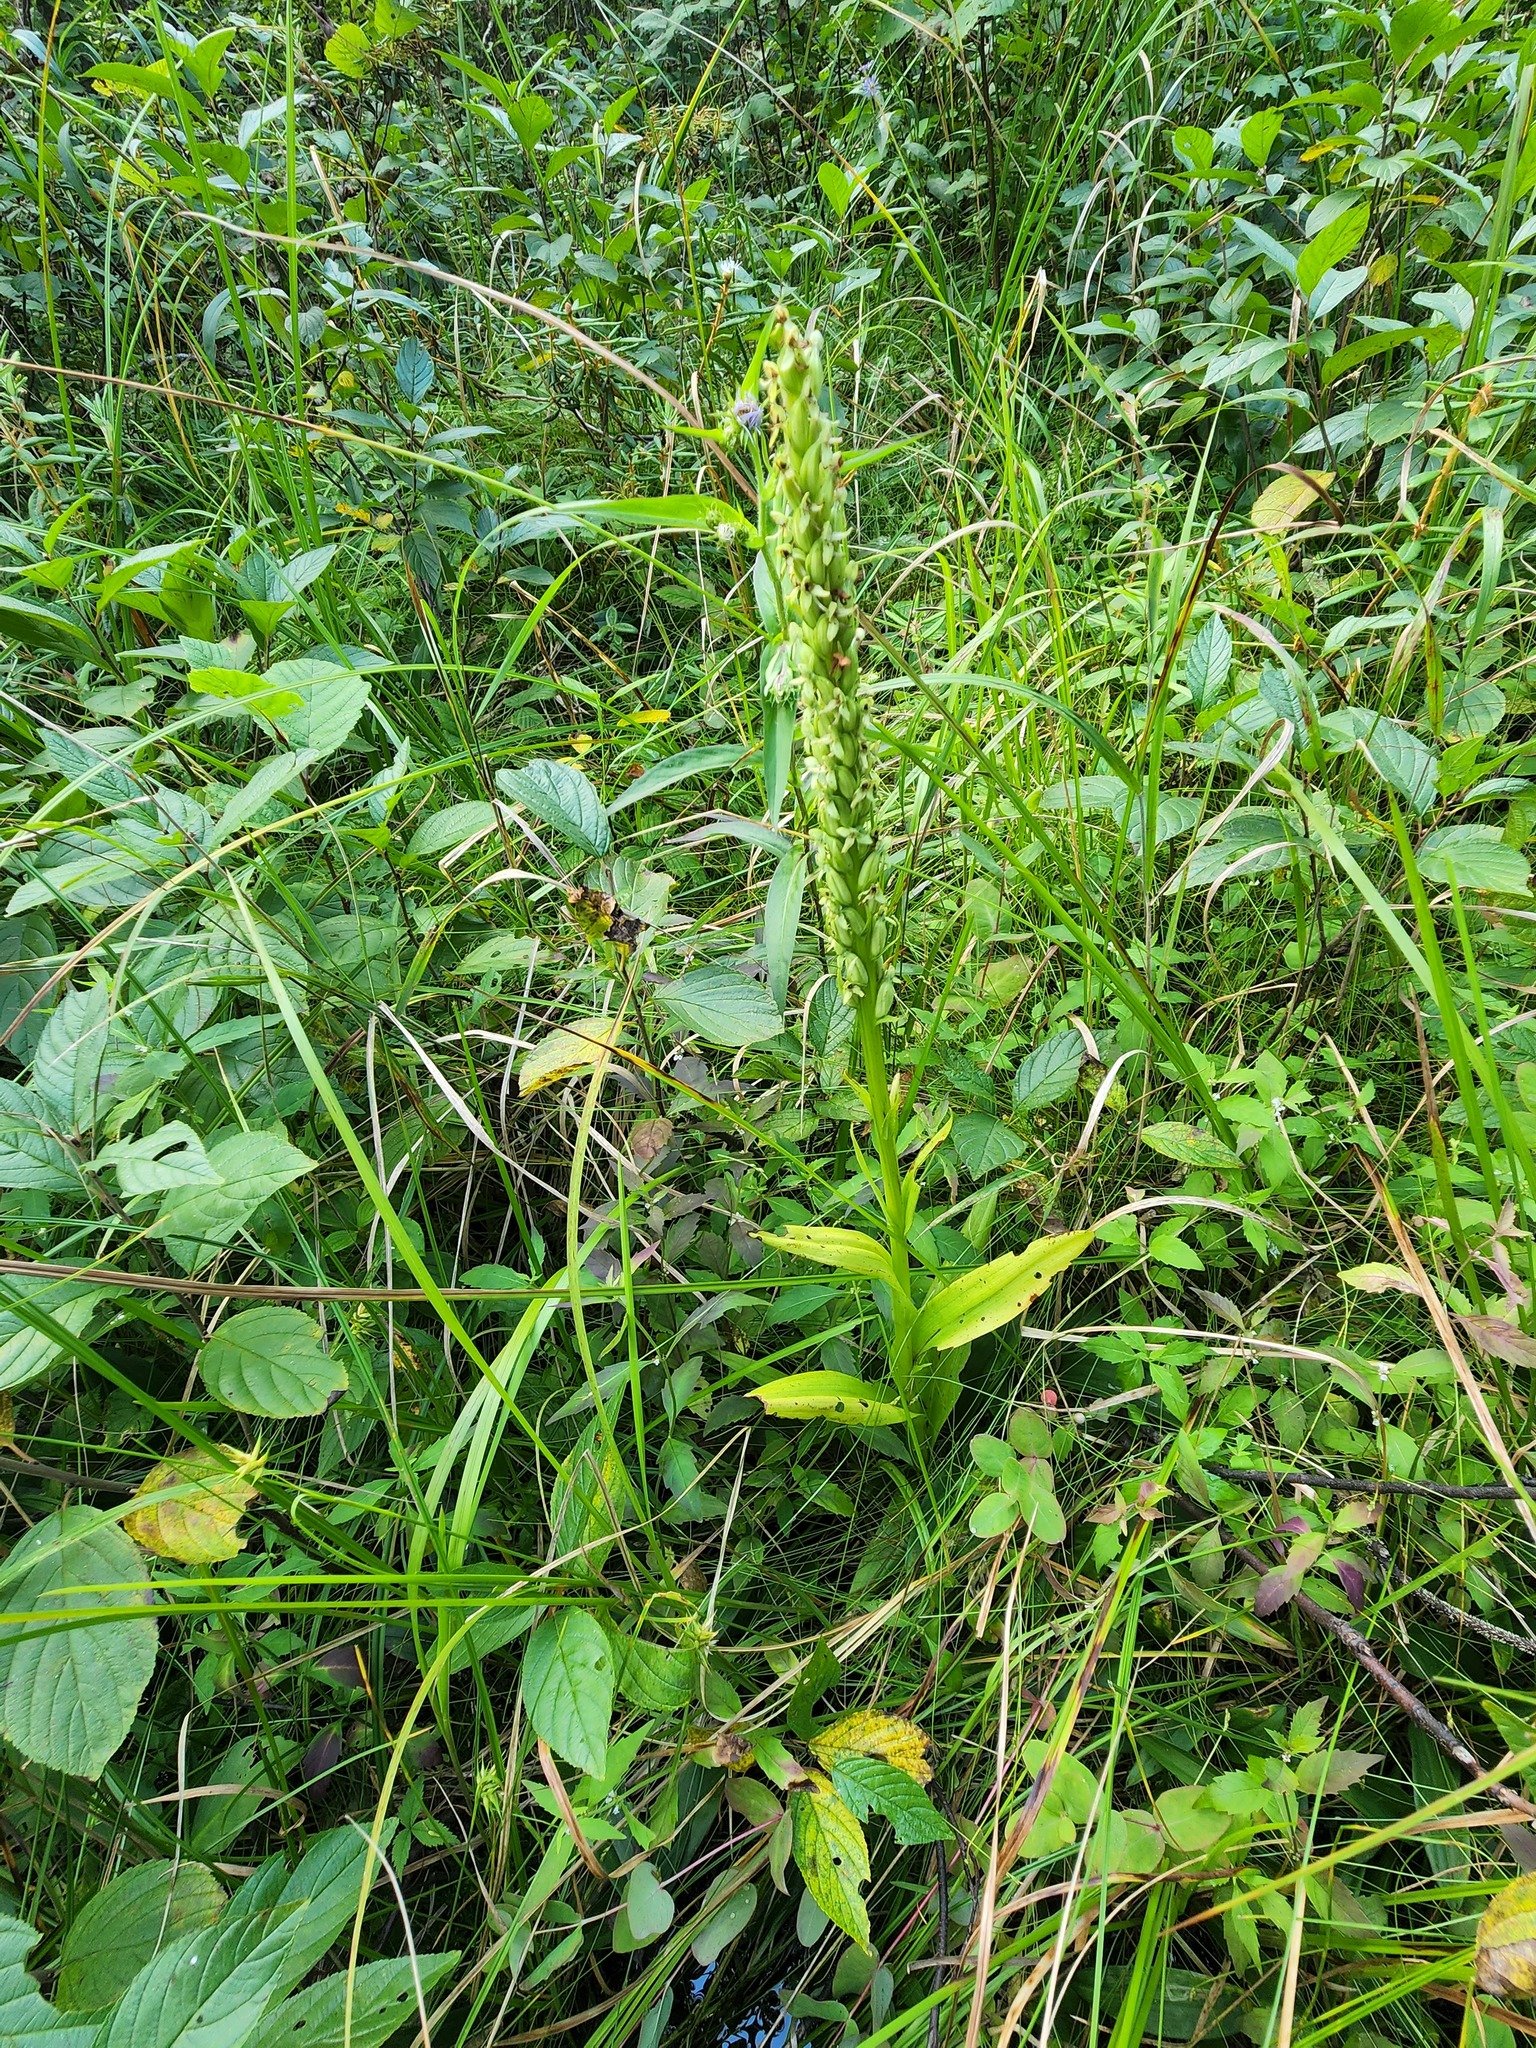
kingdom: Plantae
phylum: Tracheophyta
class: Liliopsida
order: Asparagales
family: Orchidaceae
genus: Platanthera
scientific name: Platanthera huronensis
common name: Fragrant green orchid
